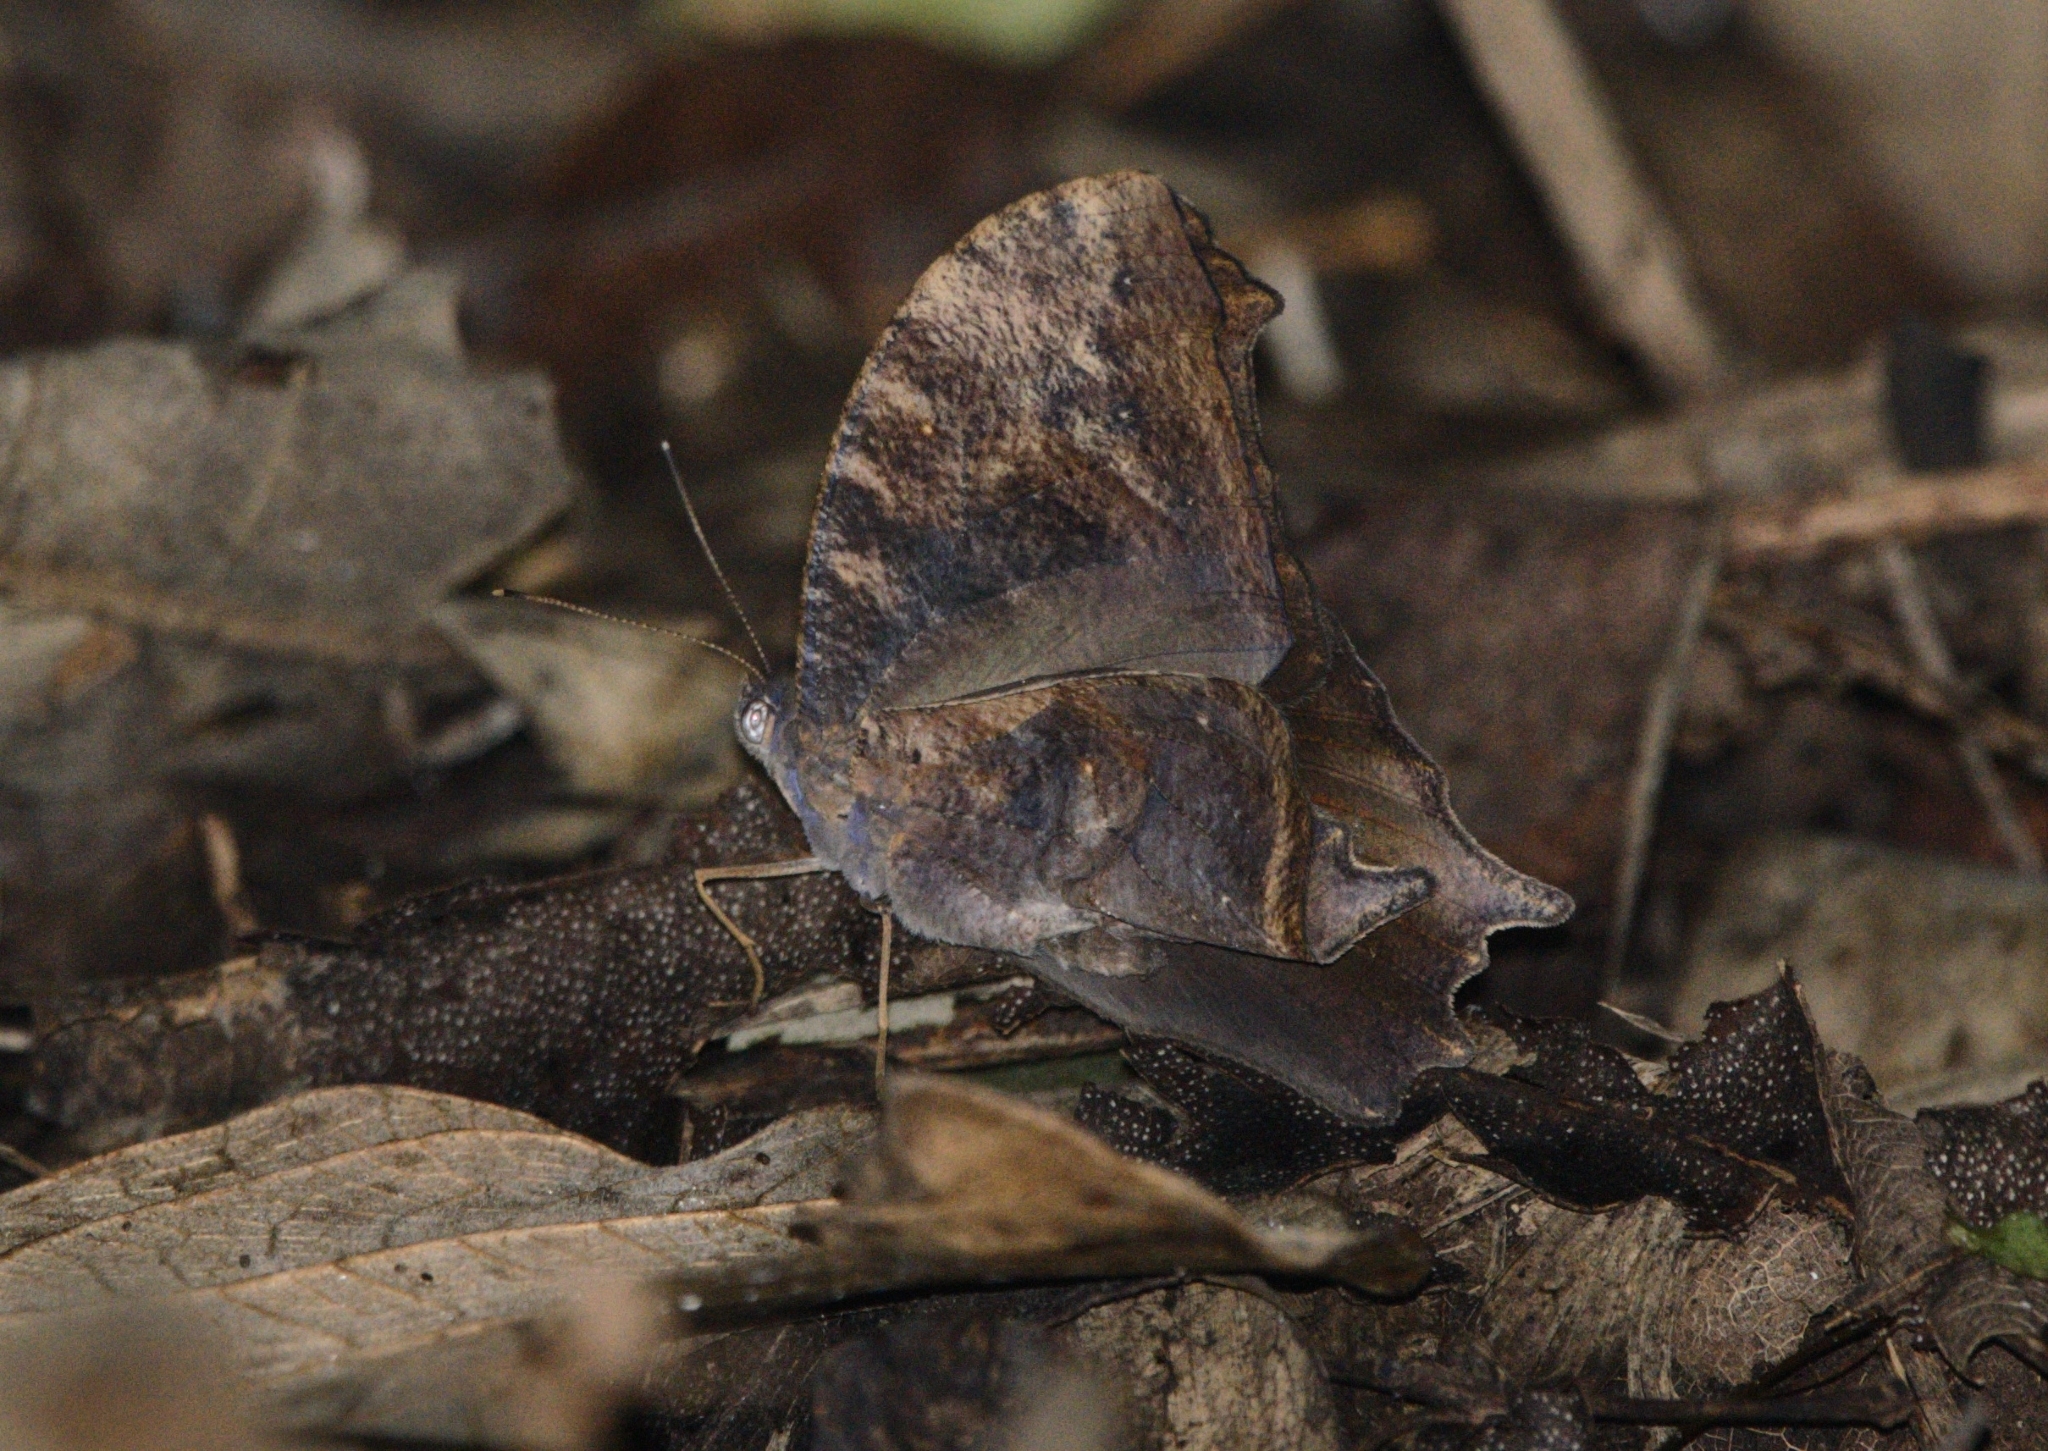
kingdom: Animalia
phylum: Arthropoda
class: Insecta
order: Lepidoptera
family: Nymphalidae
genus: Melanitis
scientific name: Melanitis phedima
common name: Dark evening brown
